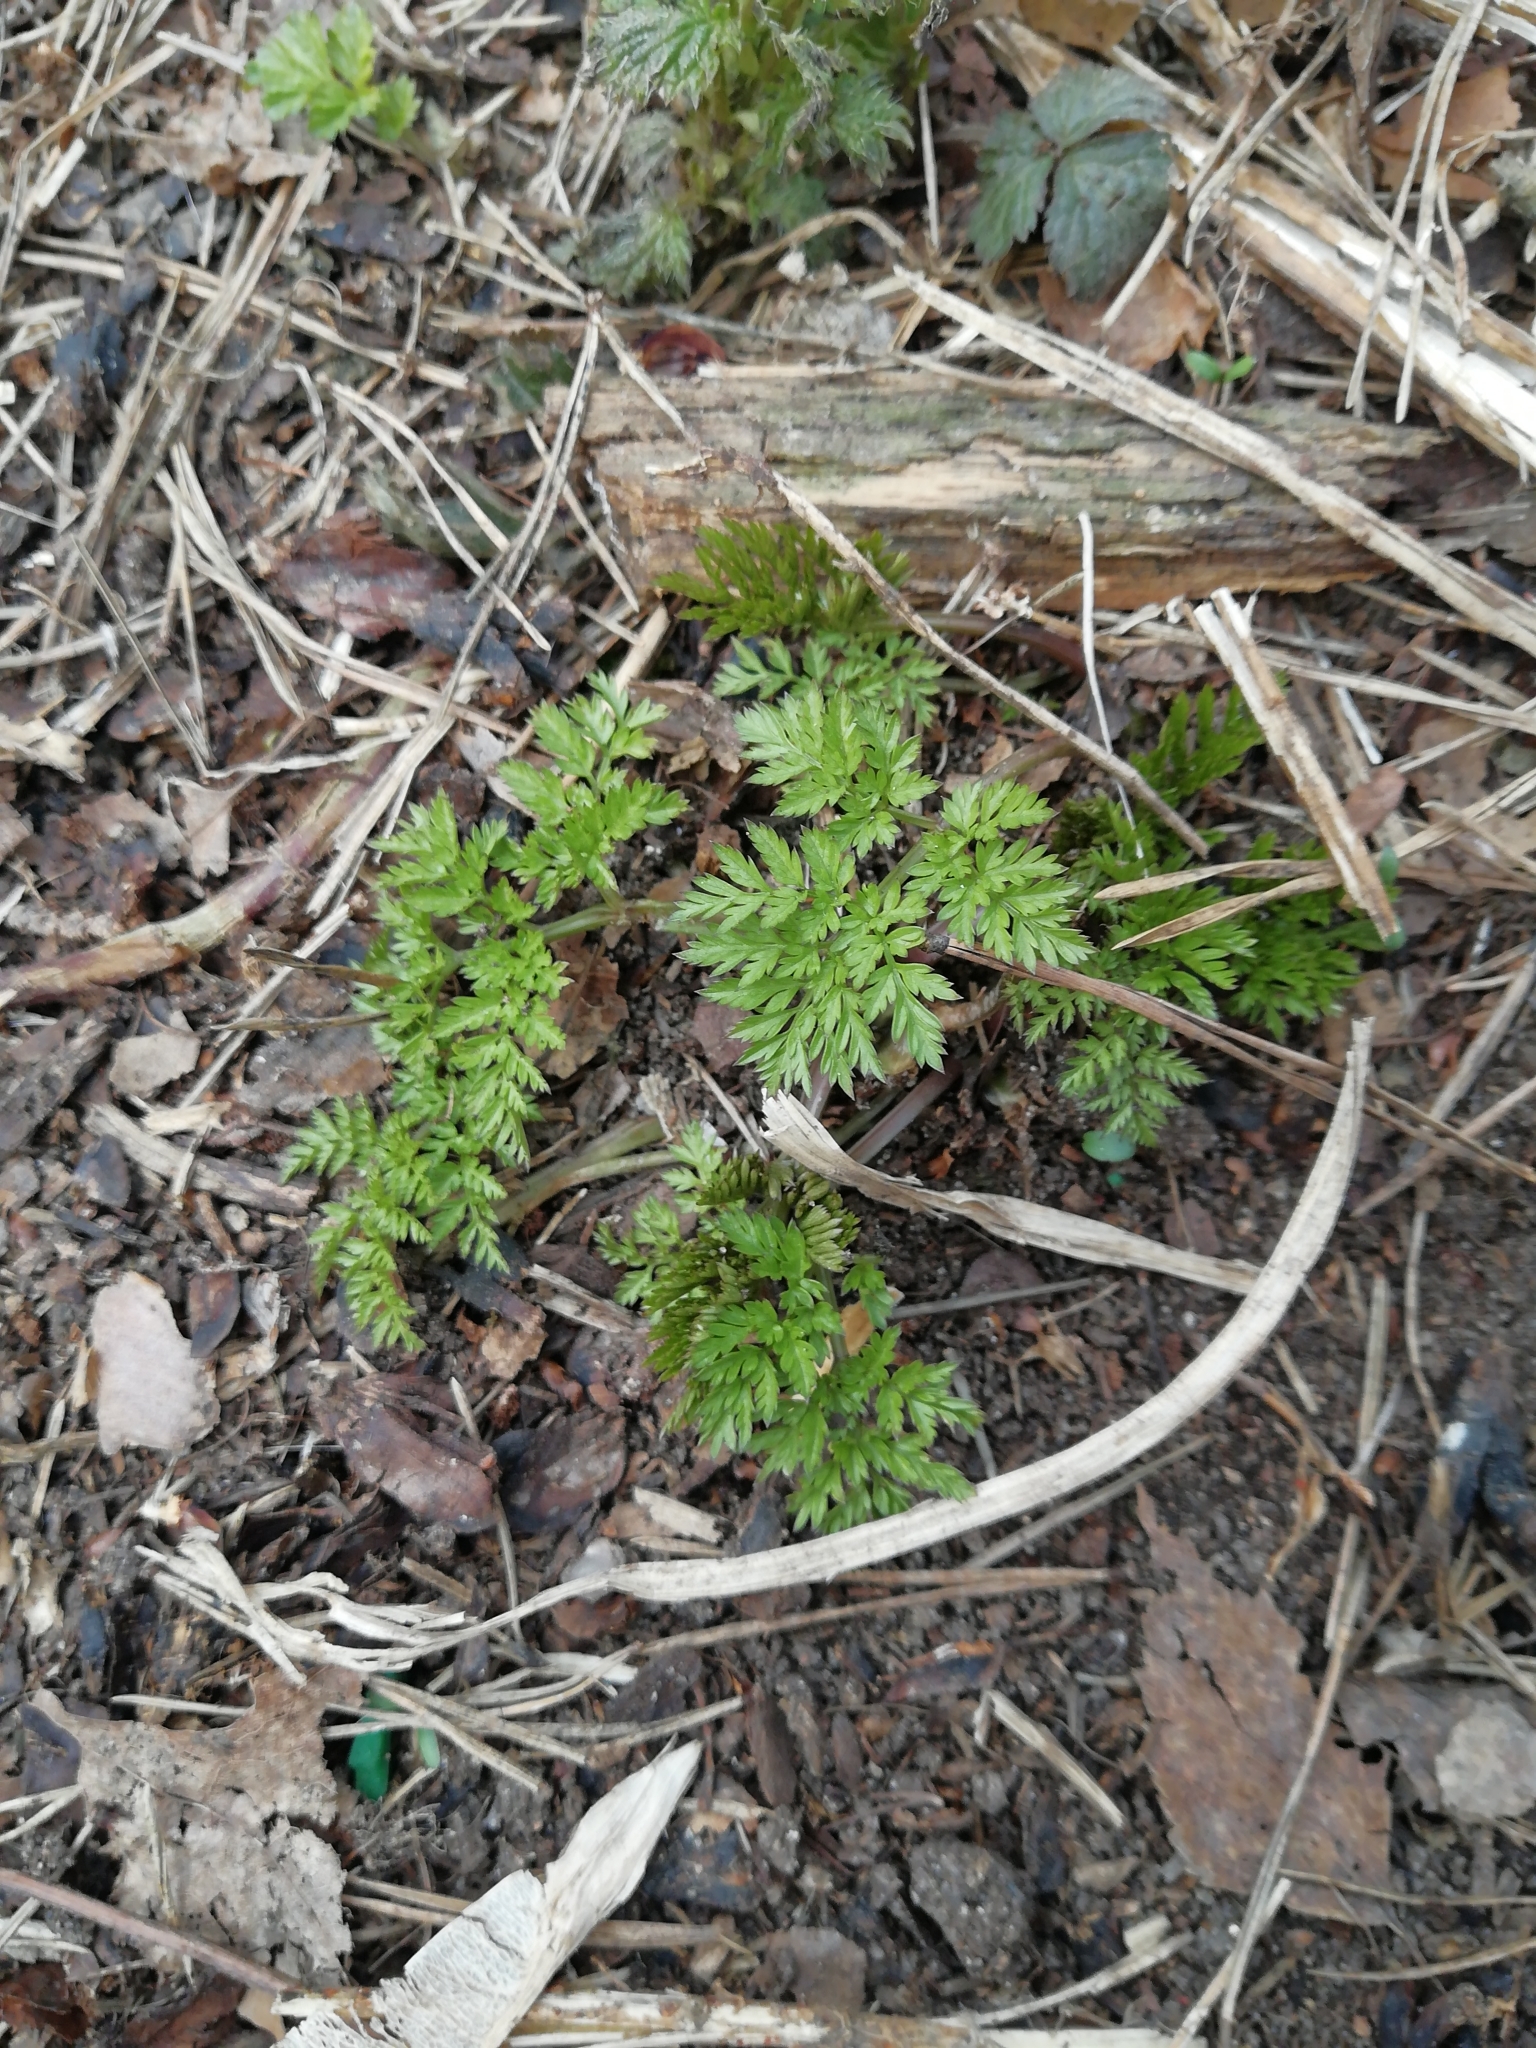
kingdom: Plantae
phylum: Tracheophyta
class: Magnoliopsida
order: Apiales
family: Apiaceae
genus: Anthriscus
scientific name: Anthriscus sylvestris
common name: Cow parsley
